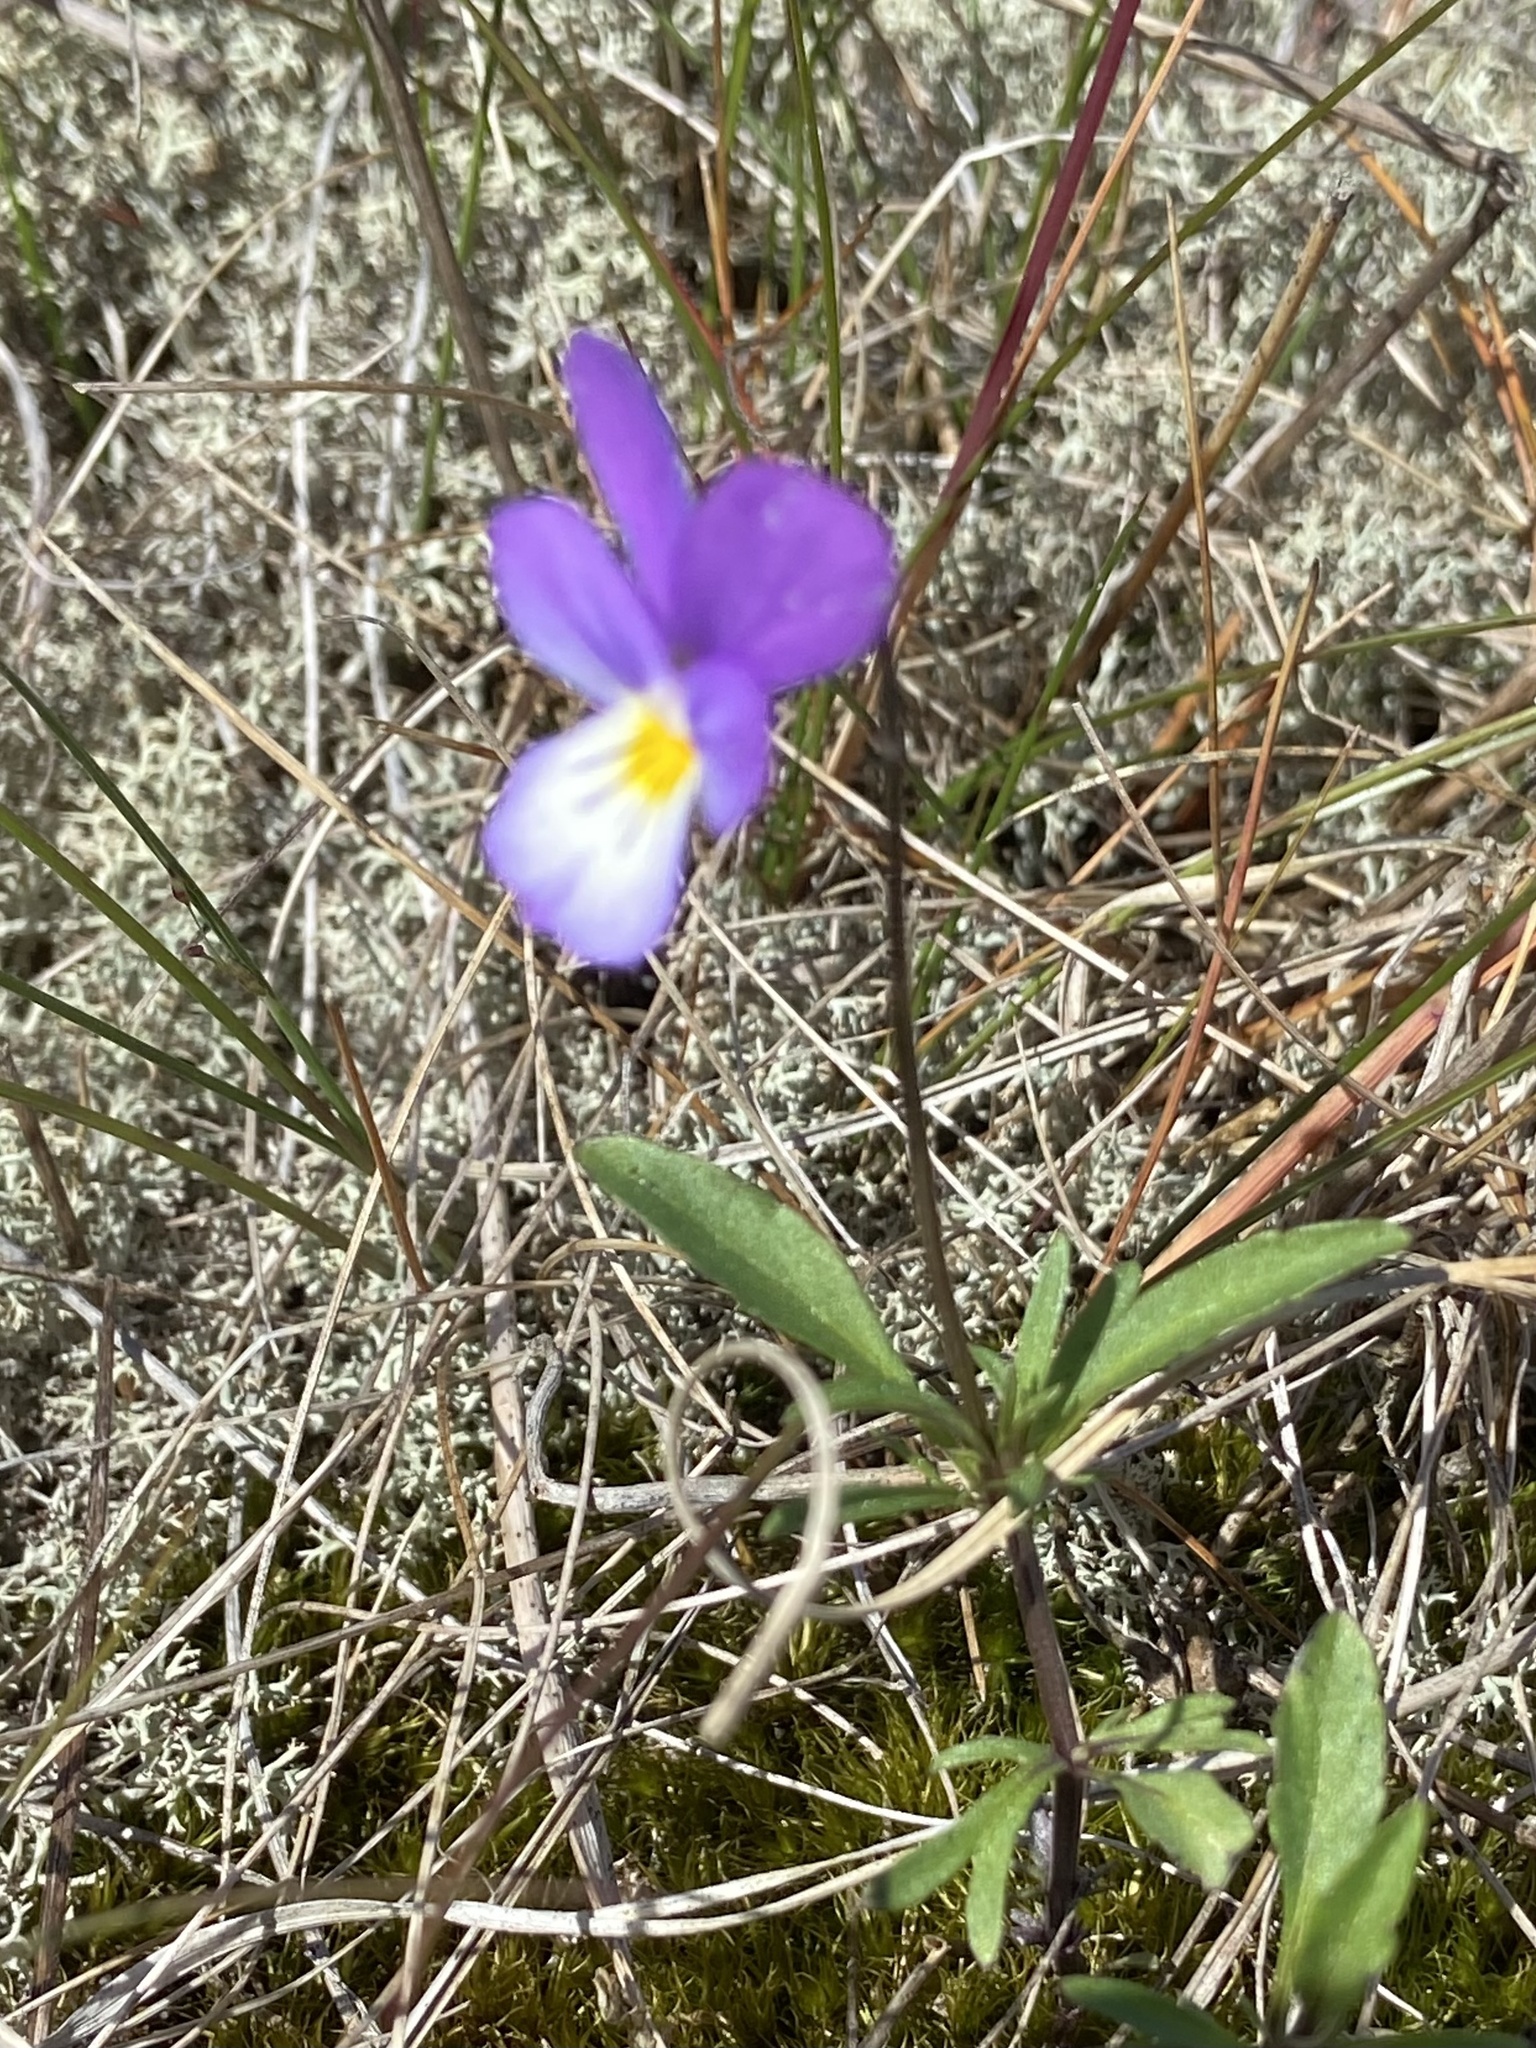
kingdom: Plantae
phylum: Tracheophyta
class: Magnoliopsida
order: Malpighiales
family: Violaceae
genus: Viola
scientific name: Viola tricolor
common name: Pansy
